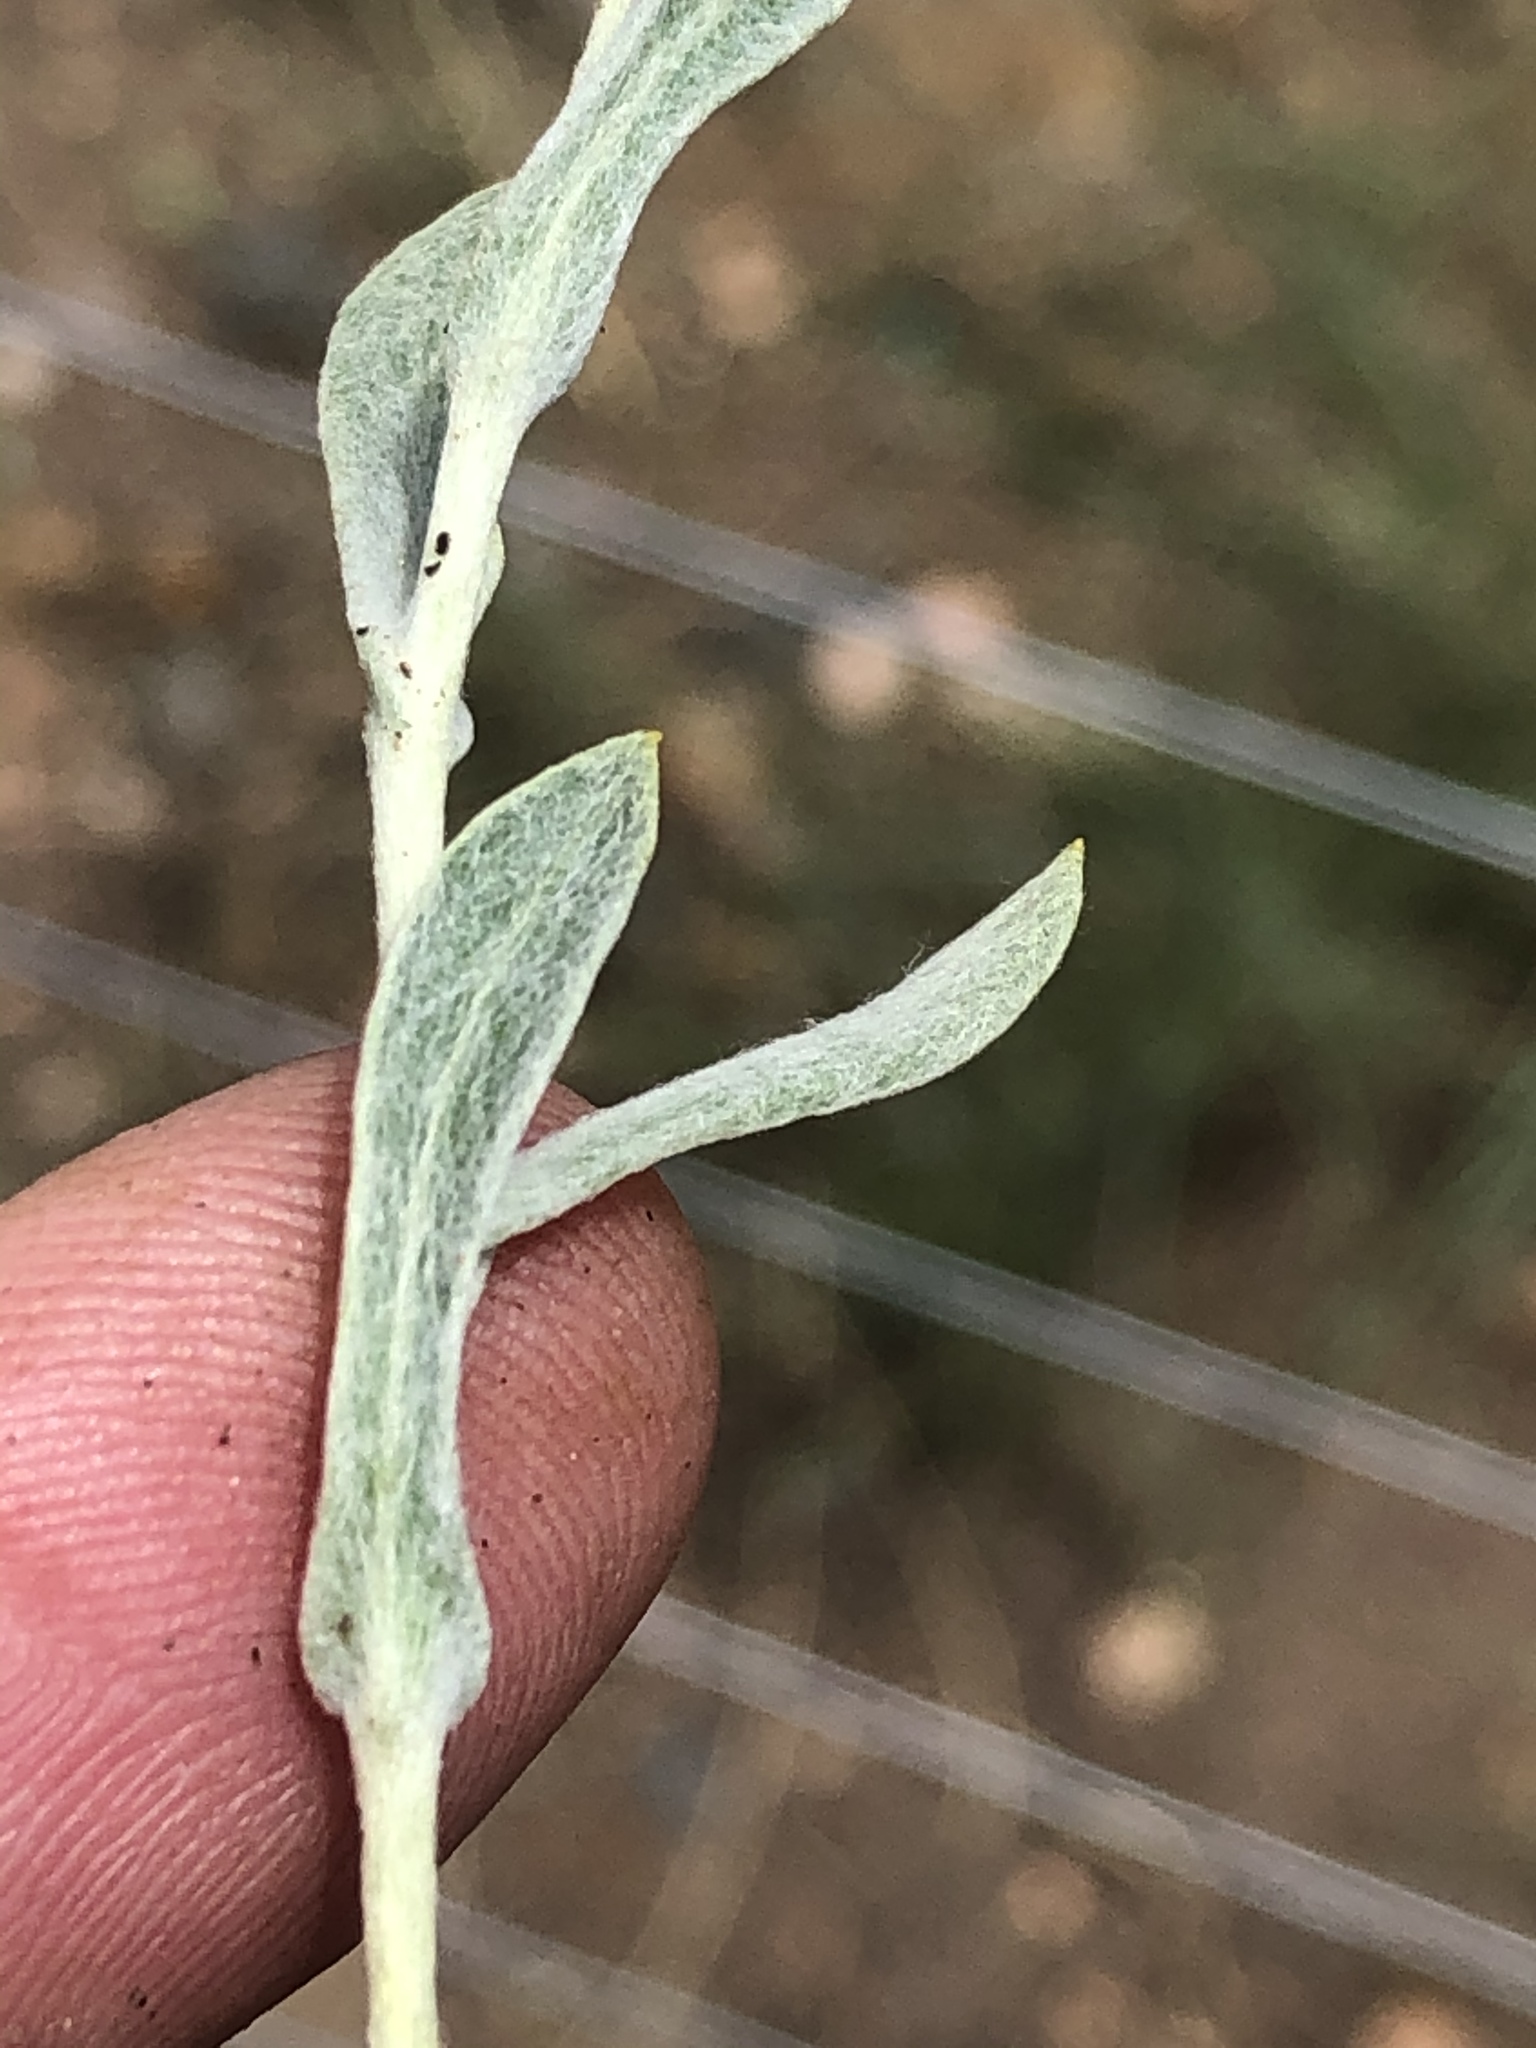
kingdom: Plantae
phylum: Tracheophyta
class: Magnoliopsida
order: Asterales
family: Asteraceae
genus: Helichrysum
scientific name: Helichrysum candolleanum
